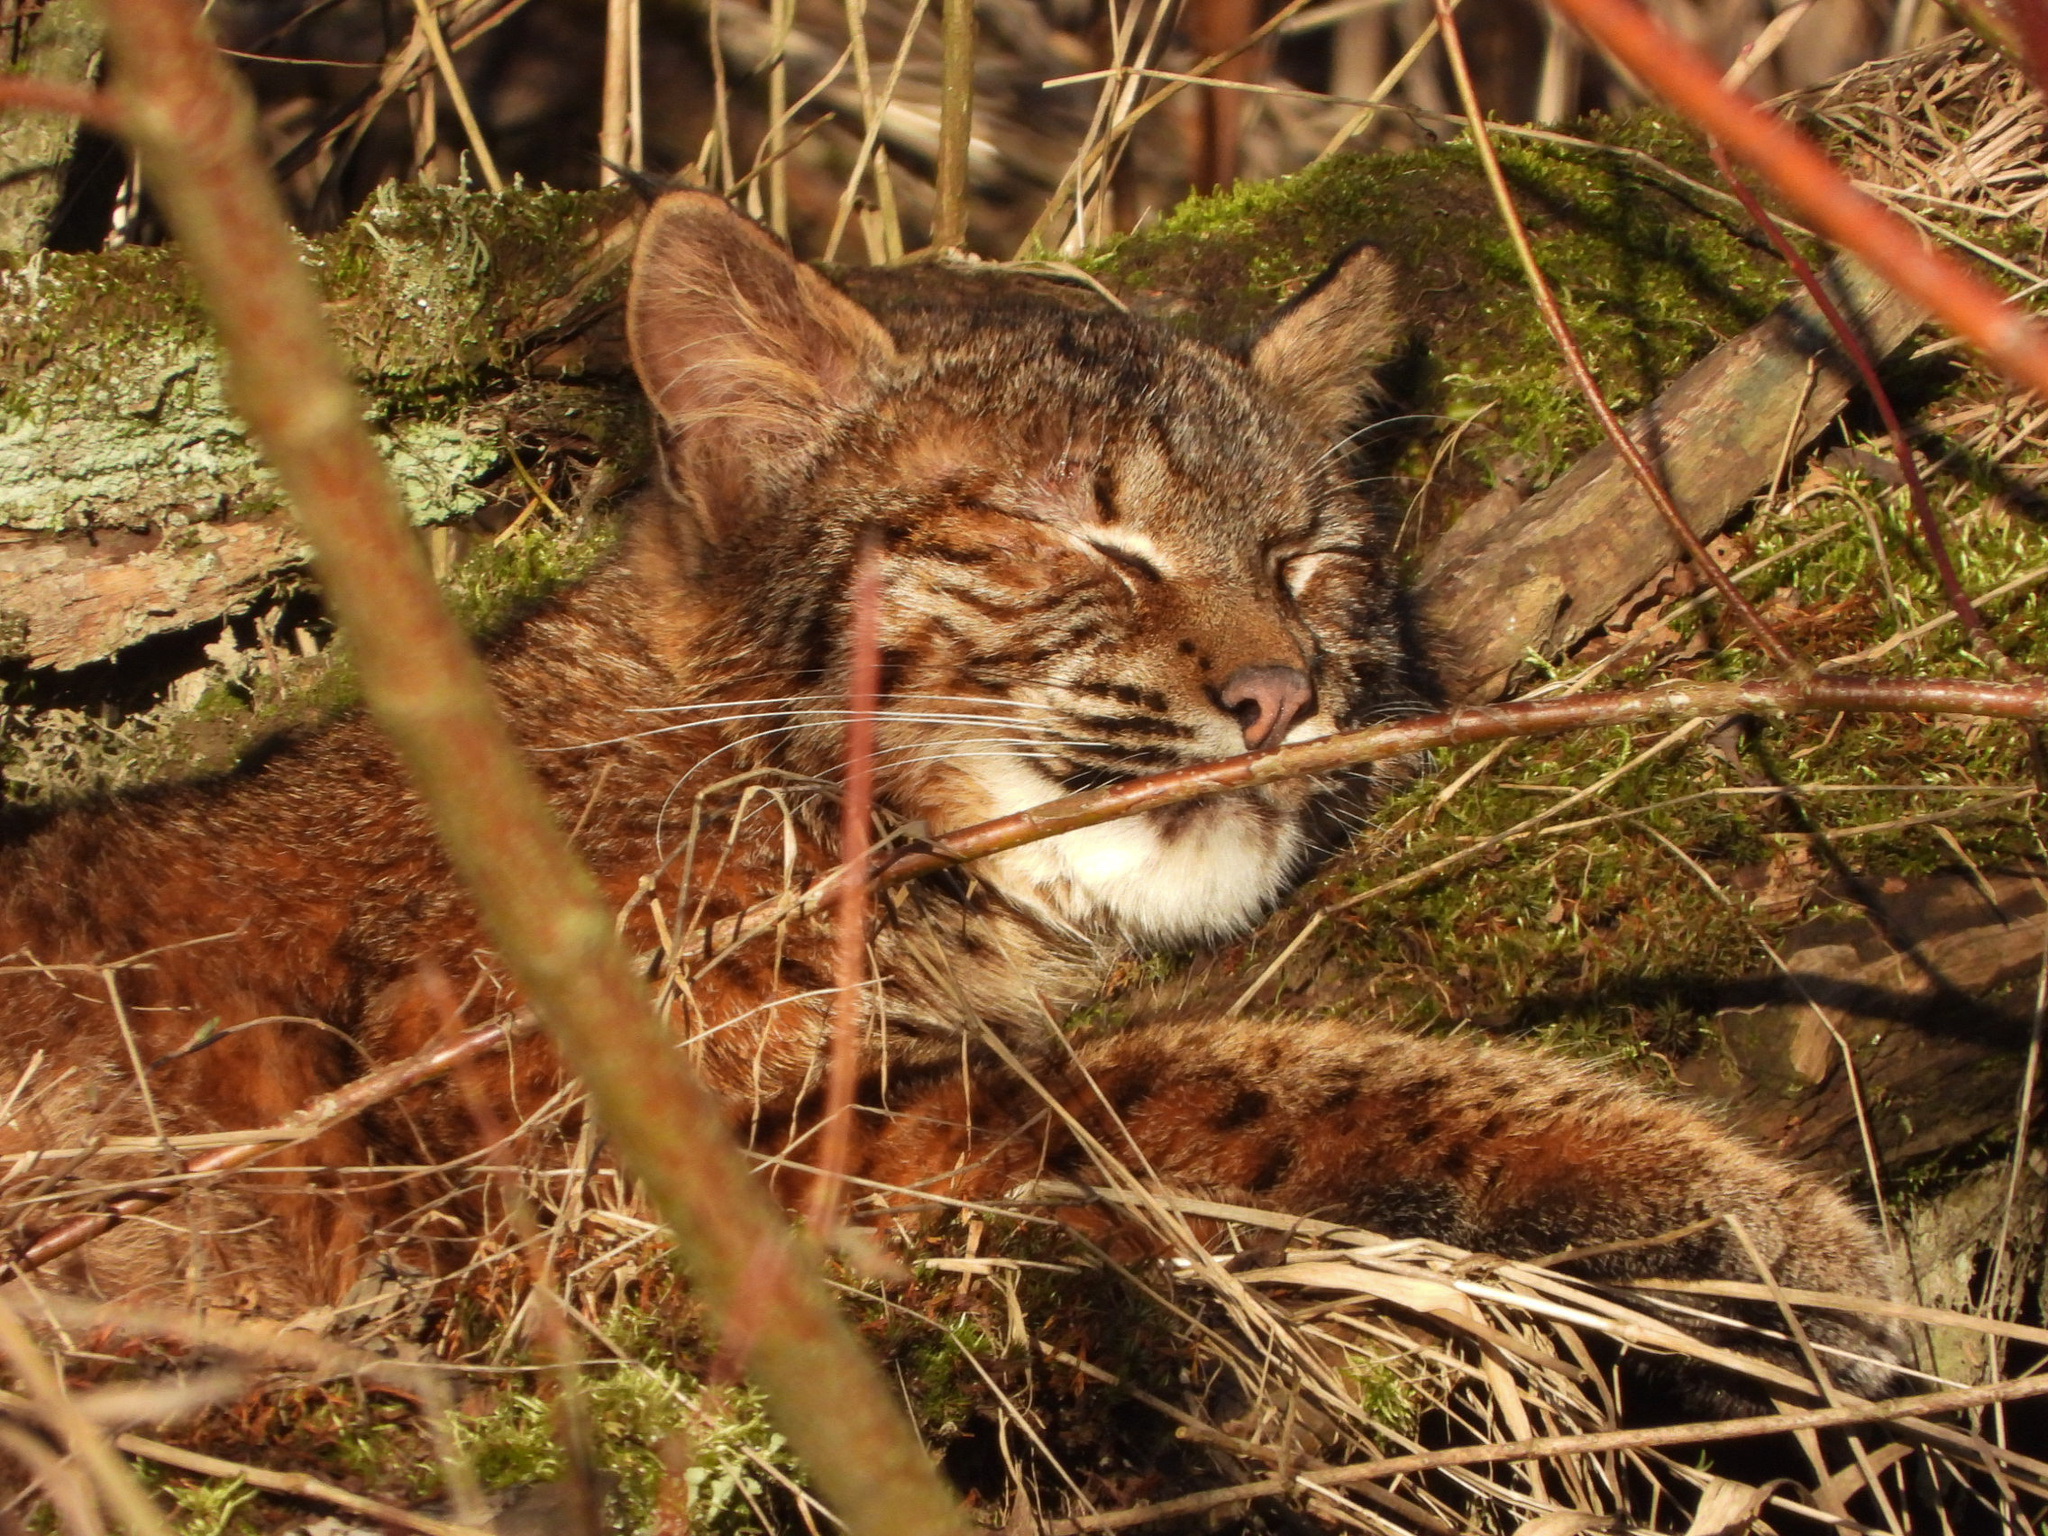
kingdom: Animalia
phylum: Chordata
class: Mammalia
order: Carnivora
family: Felidae
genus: Lynx
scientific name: Lynx rufus
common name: Bobcat
